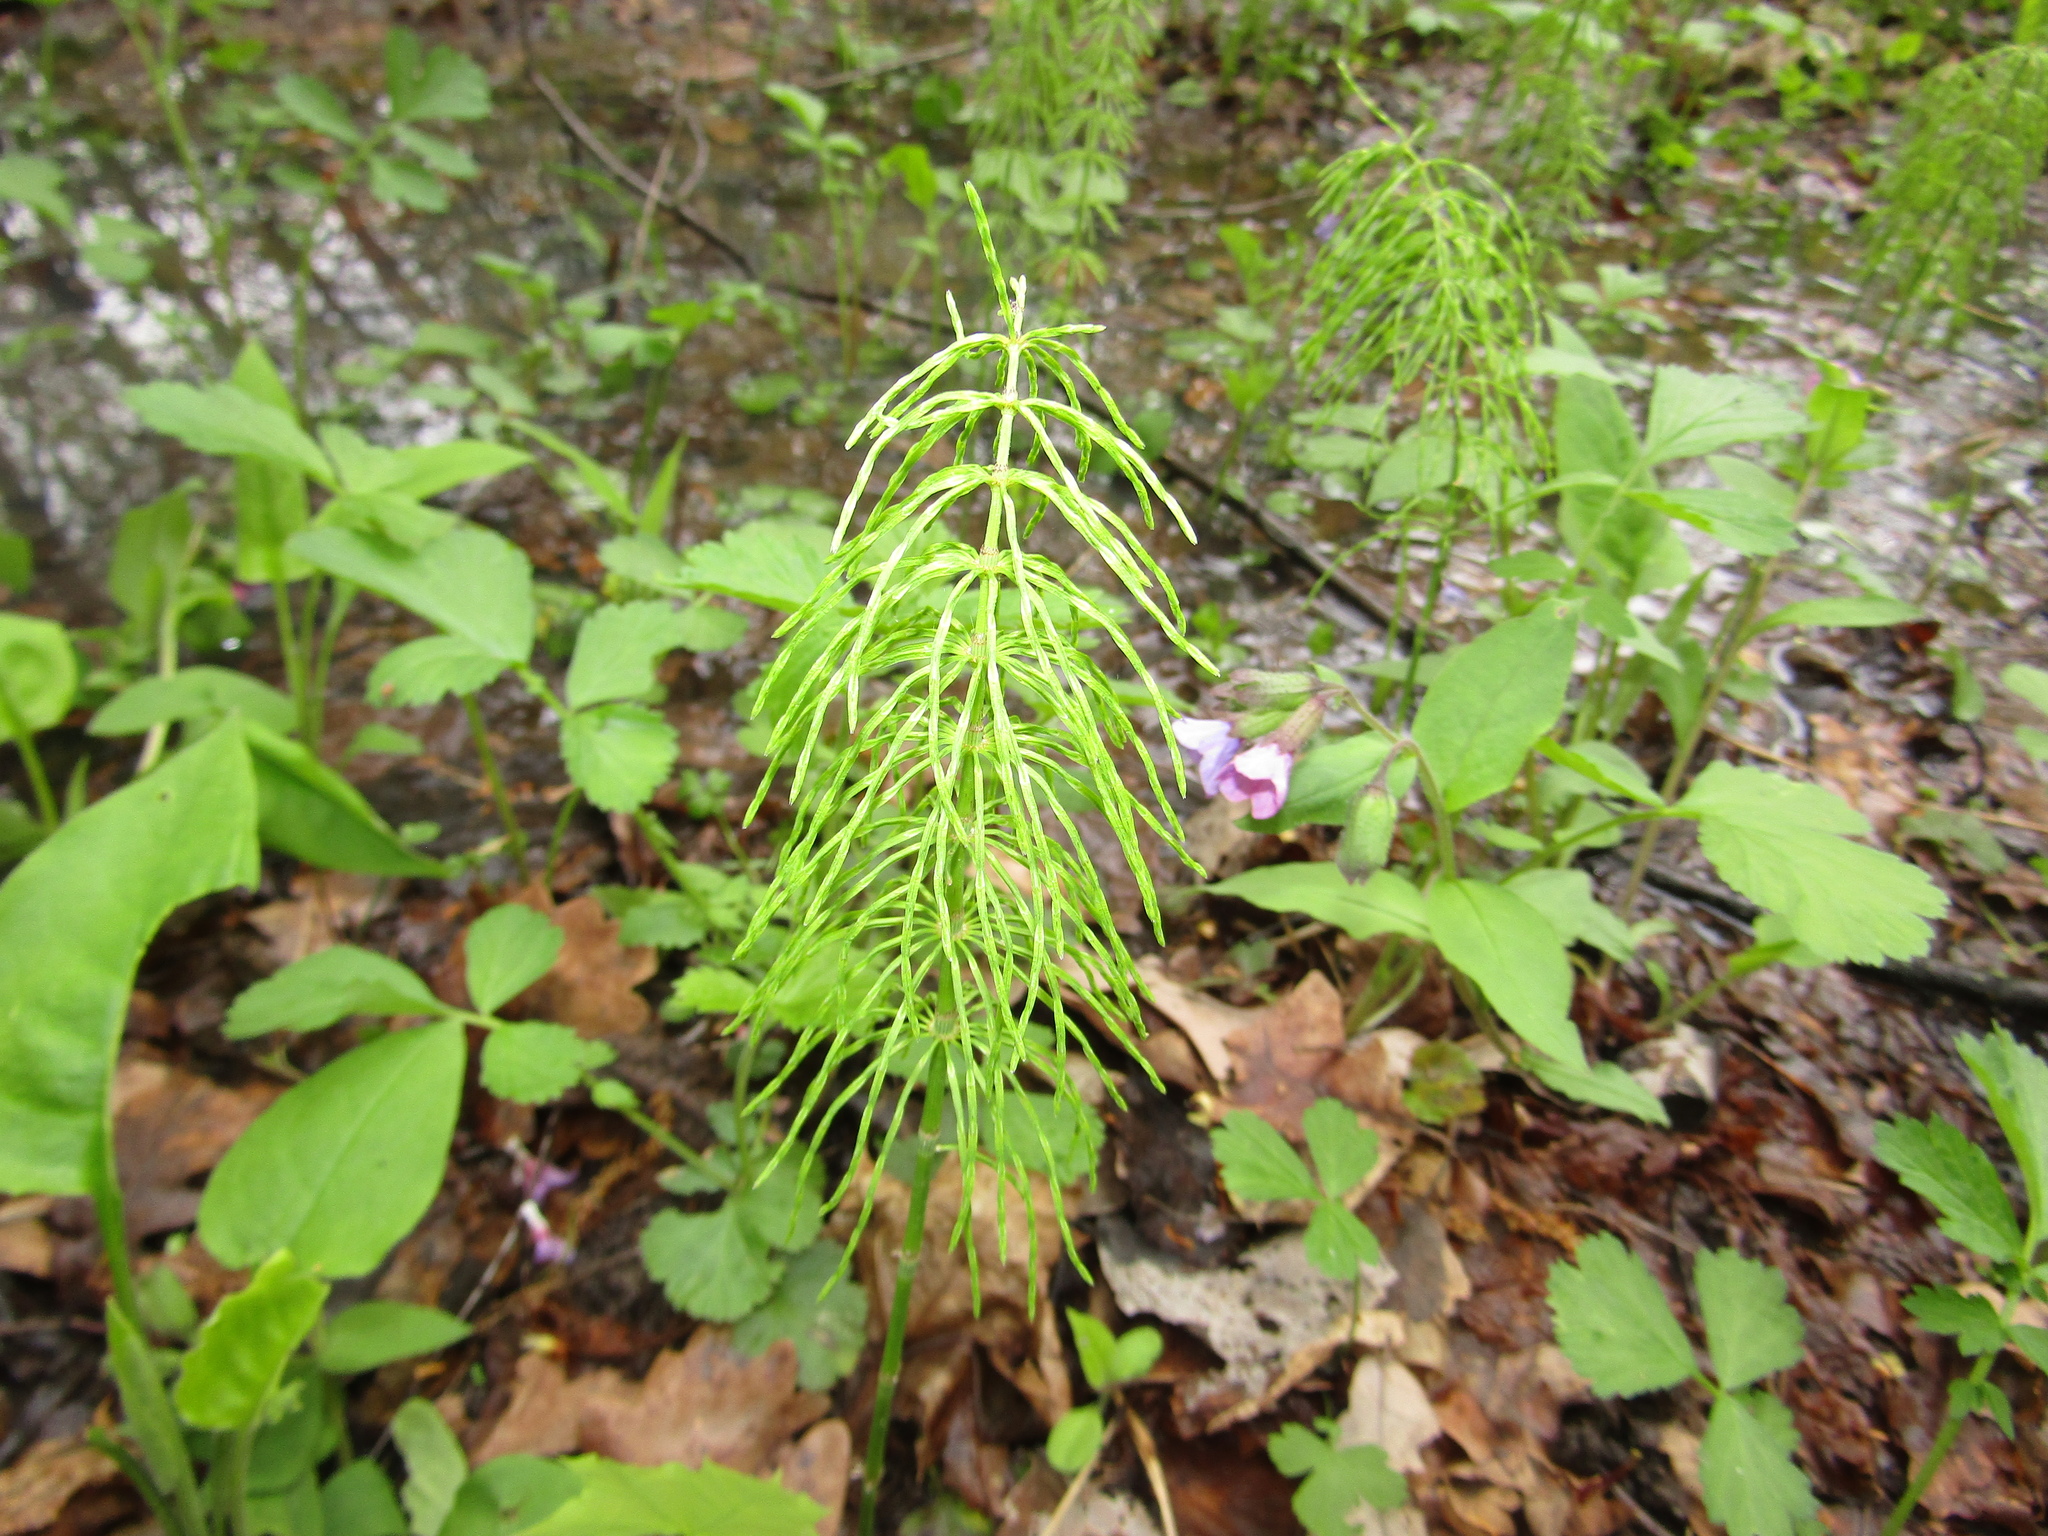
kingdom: Plantae
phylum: Tracheophyta
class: Polypodiopsida
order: Equisetales
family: Equisetaceae
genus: Equisetum
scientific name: Equisetum pratense
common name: Meadow horsetail
